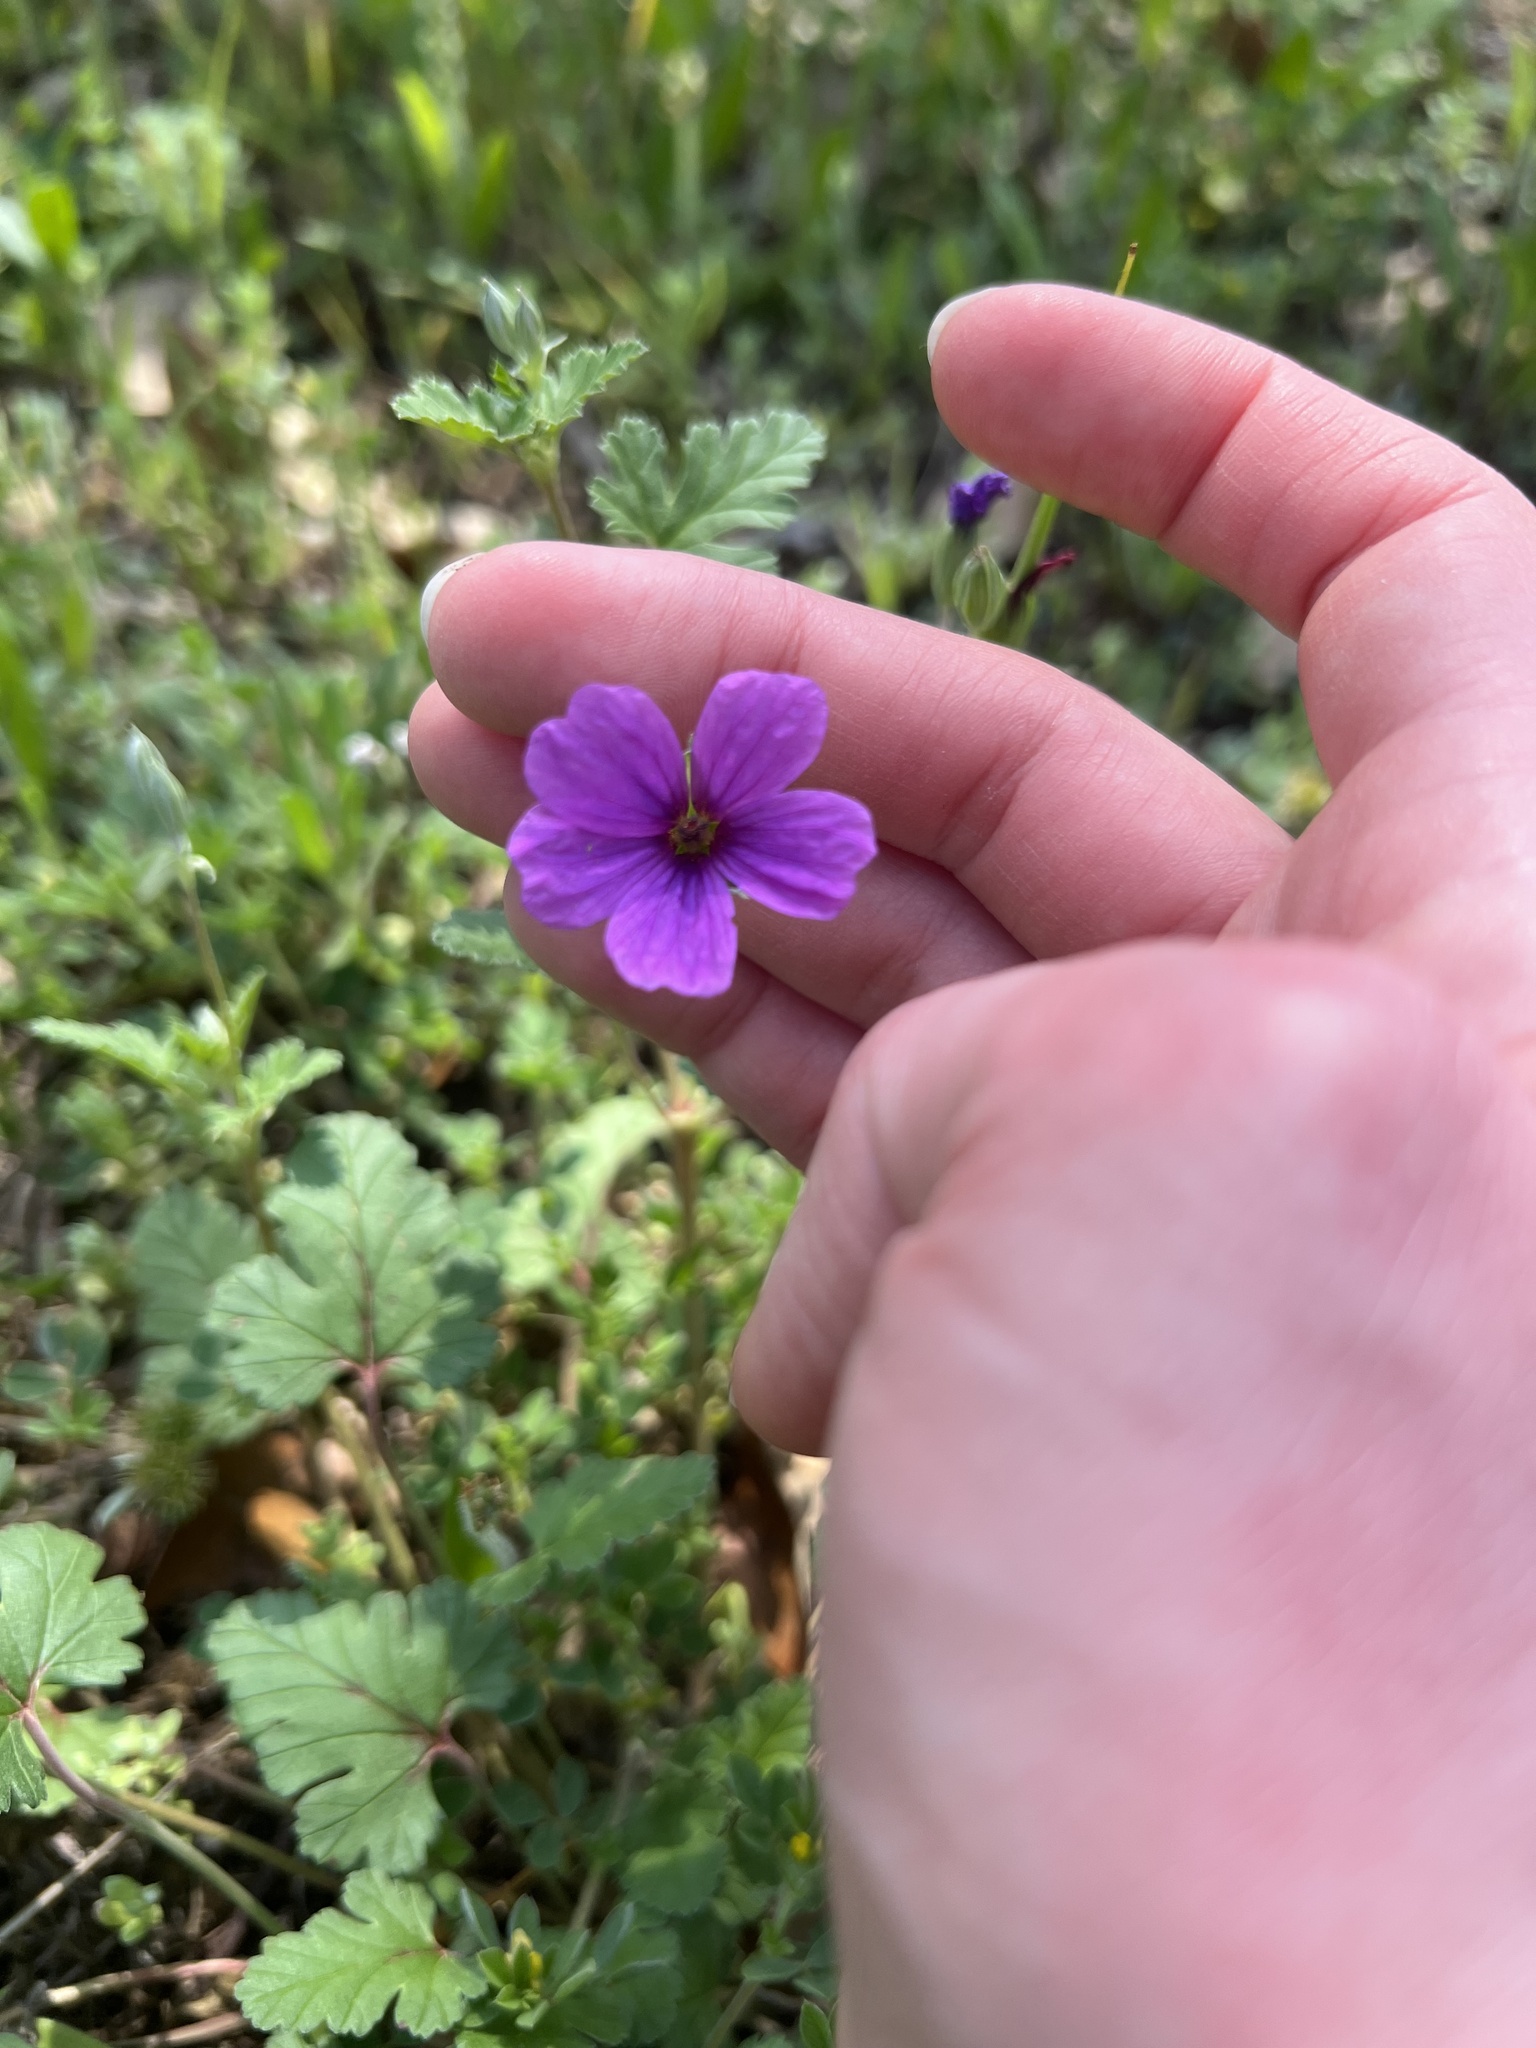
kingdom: Plantae
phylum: Tracheophyta
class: Magnoliopsida
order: Geraniales
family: Geraniaceae
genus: Erodium
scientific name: Erodium texanum
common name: Texas stork's-bill
